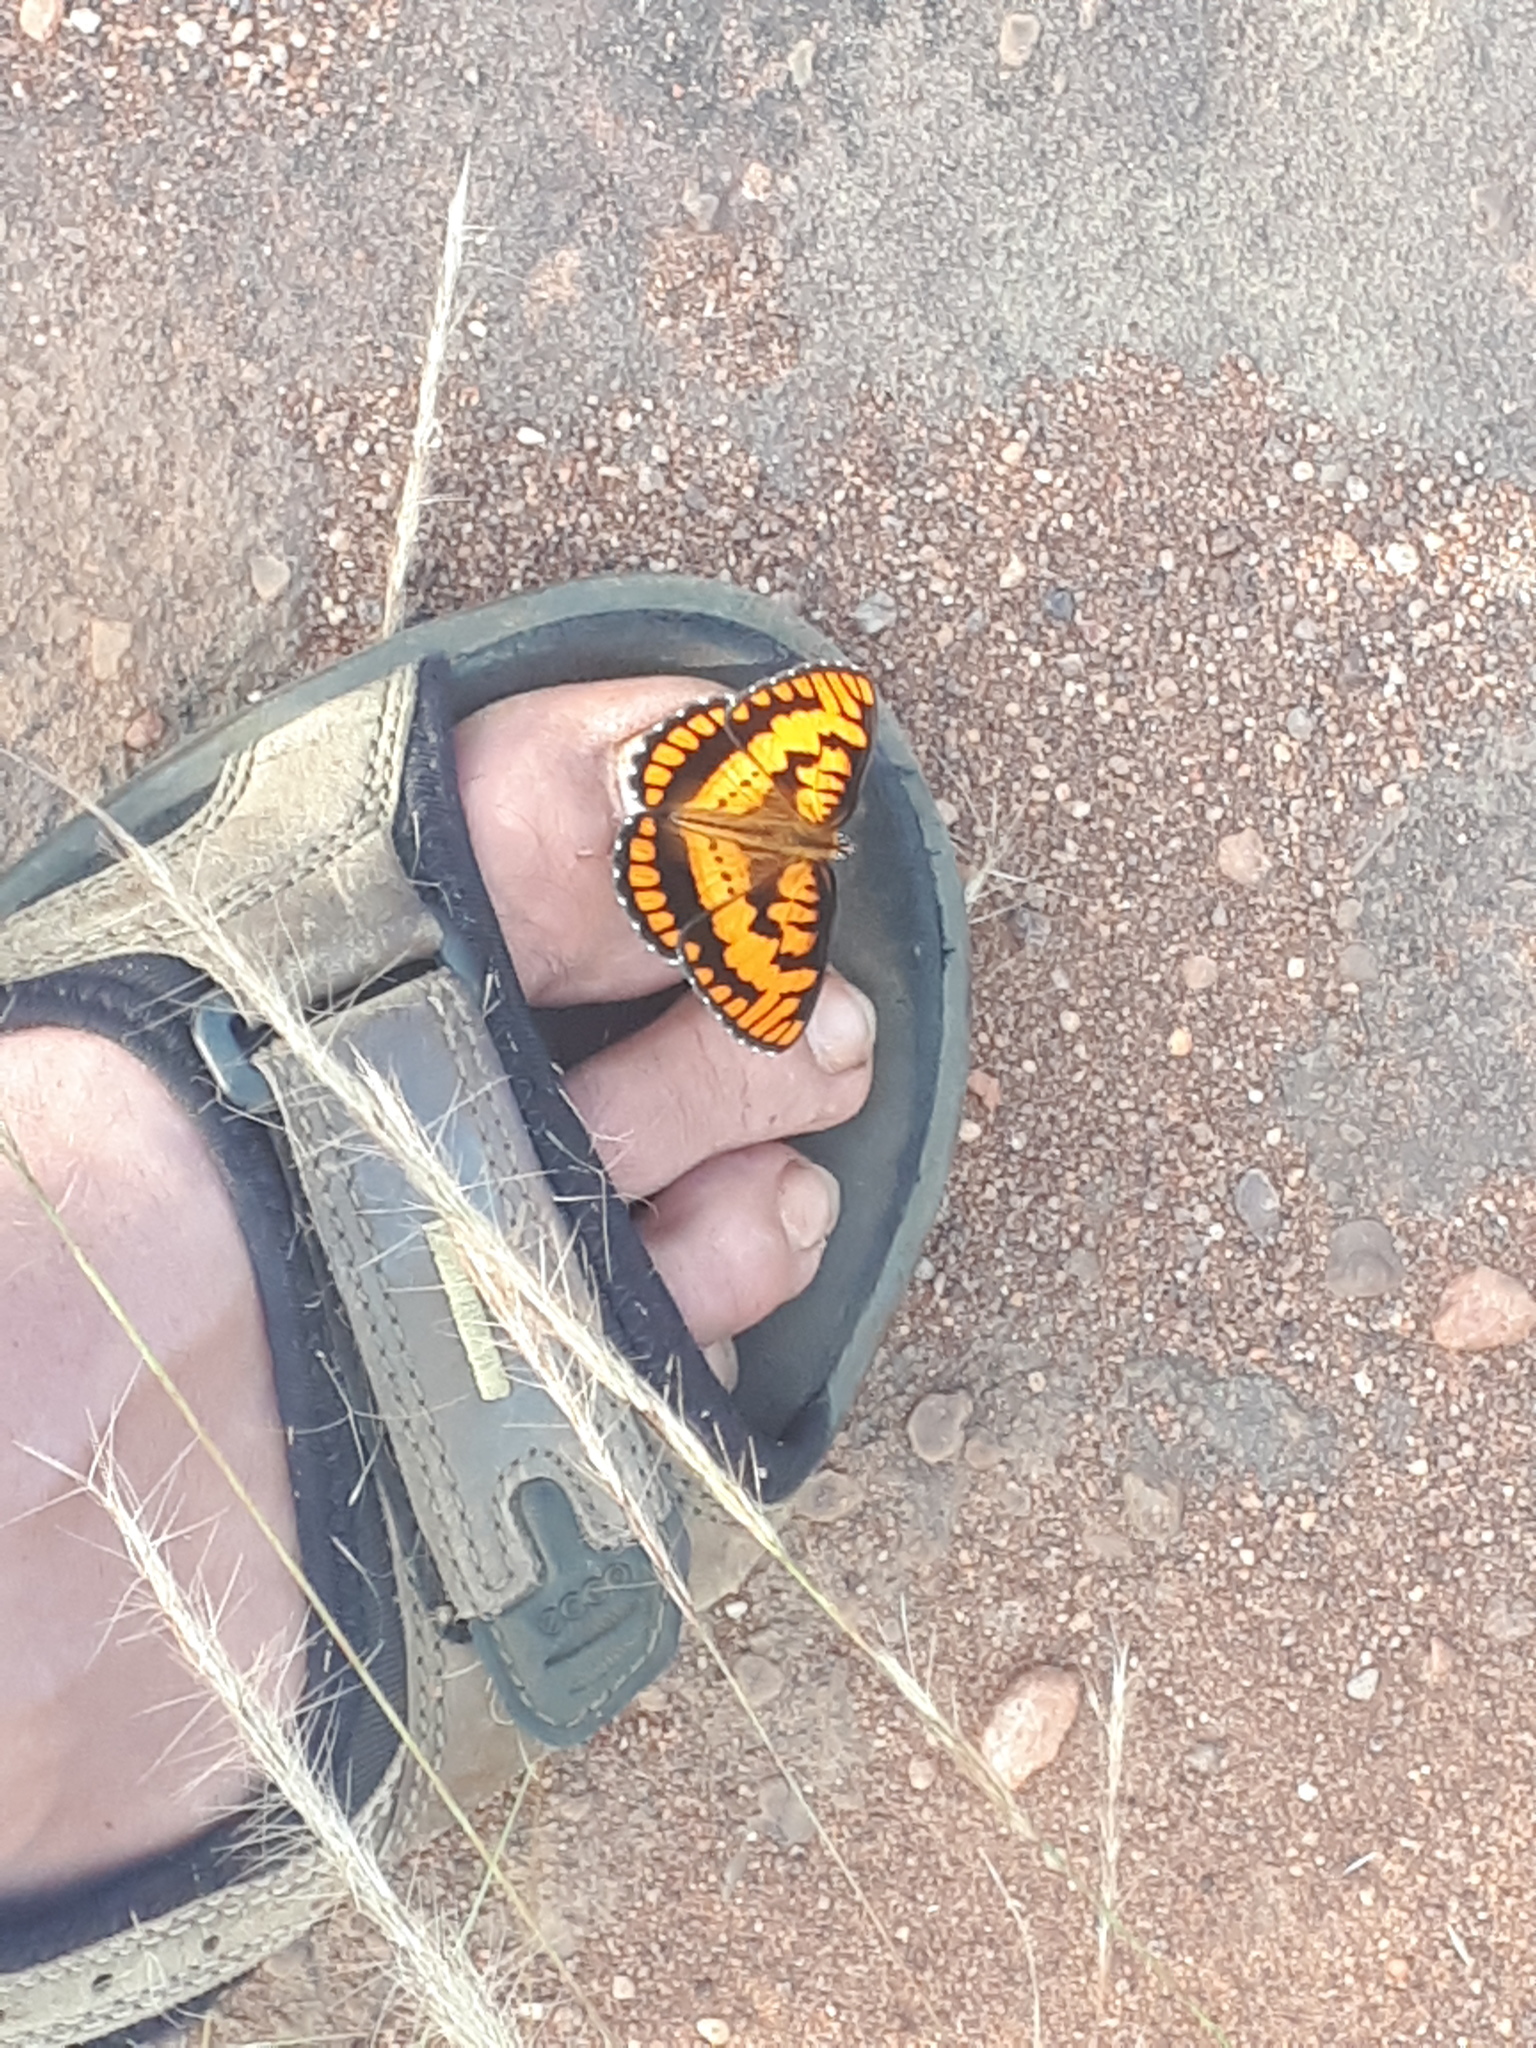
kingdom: Animalia
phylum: Arthropoda
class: Insecta
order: Lepidoptera
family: Nymphalidae
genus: Byblia
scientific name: Byblia ilithyia
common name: Spotted joker
